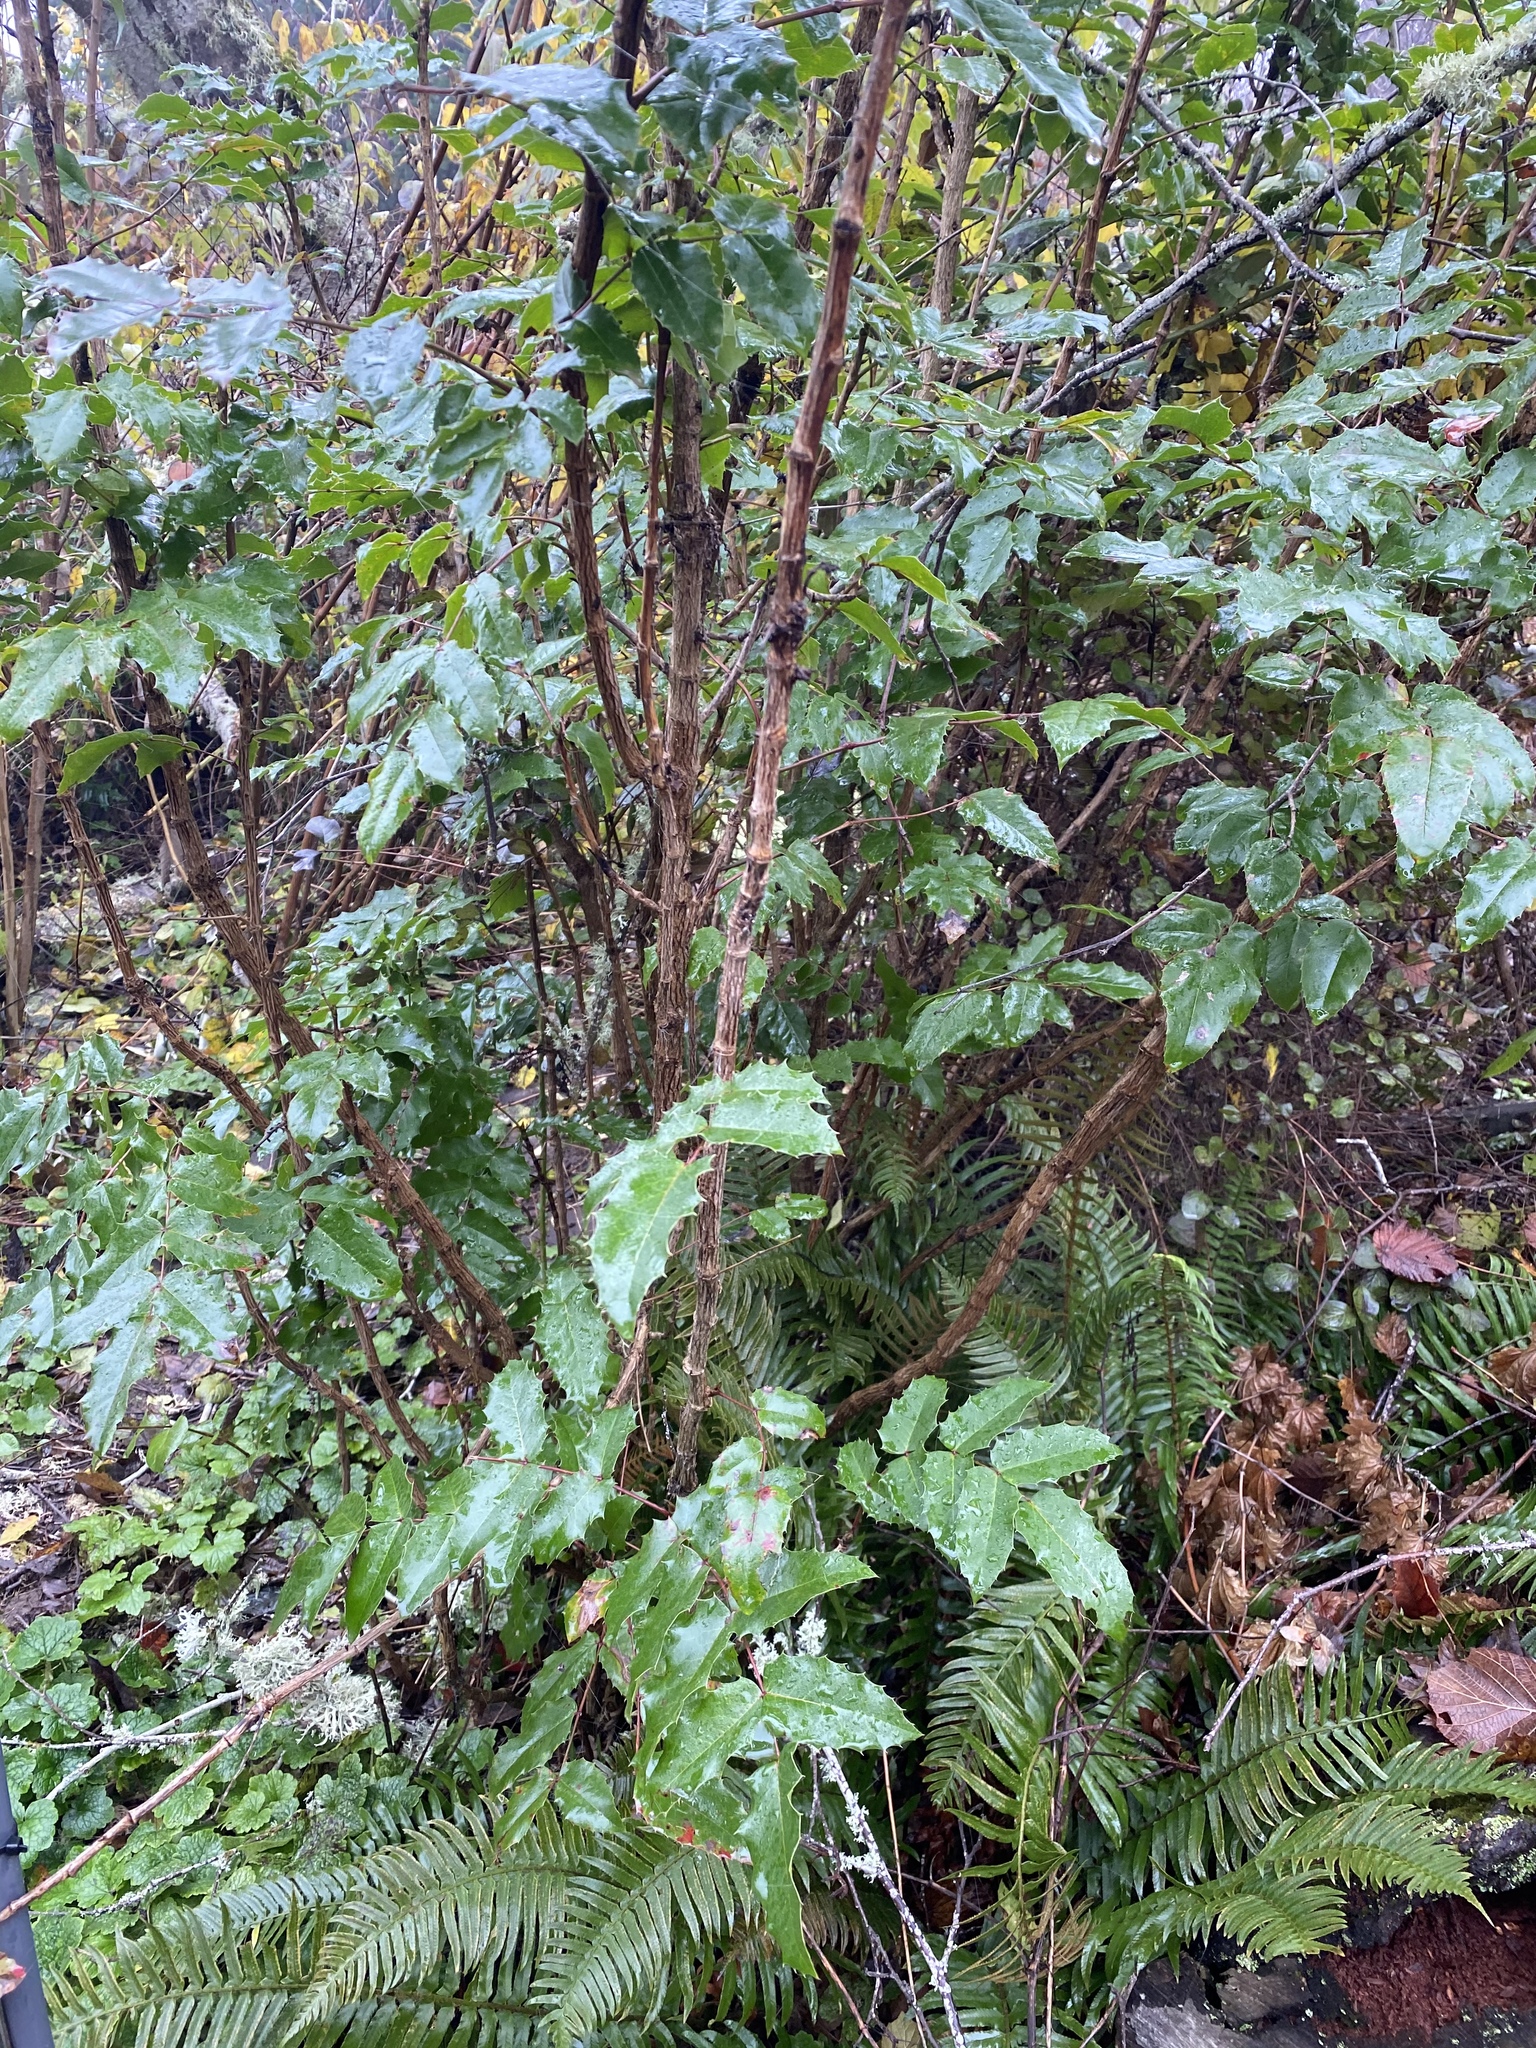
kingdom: Plantae
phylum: Tracheophyta
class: Magnoliopsida
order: Ranunculales
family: Berberidaceae
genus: Mahonia
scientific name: Mahonia aquifolium
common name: Oregon-grape
